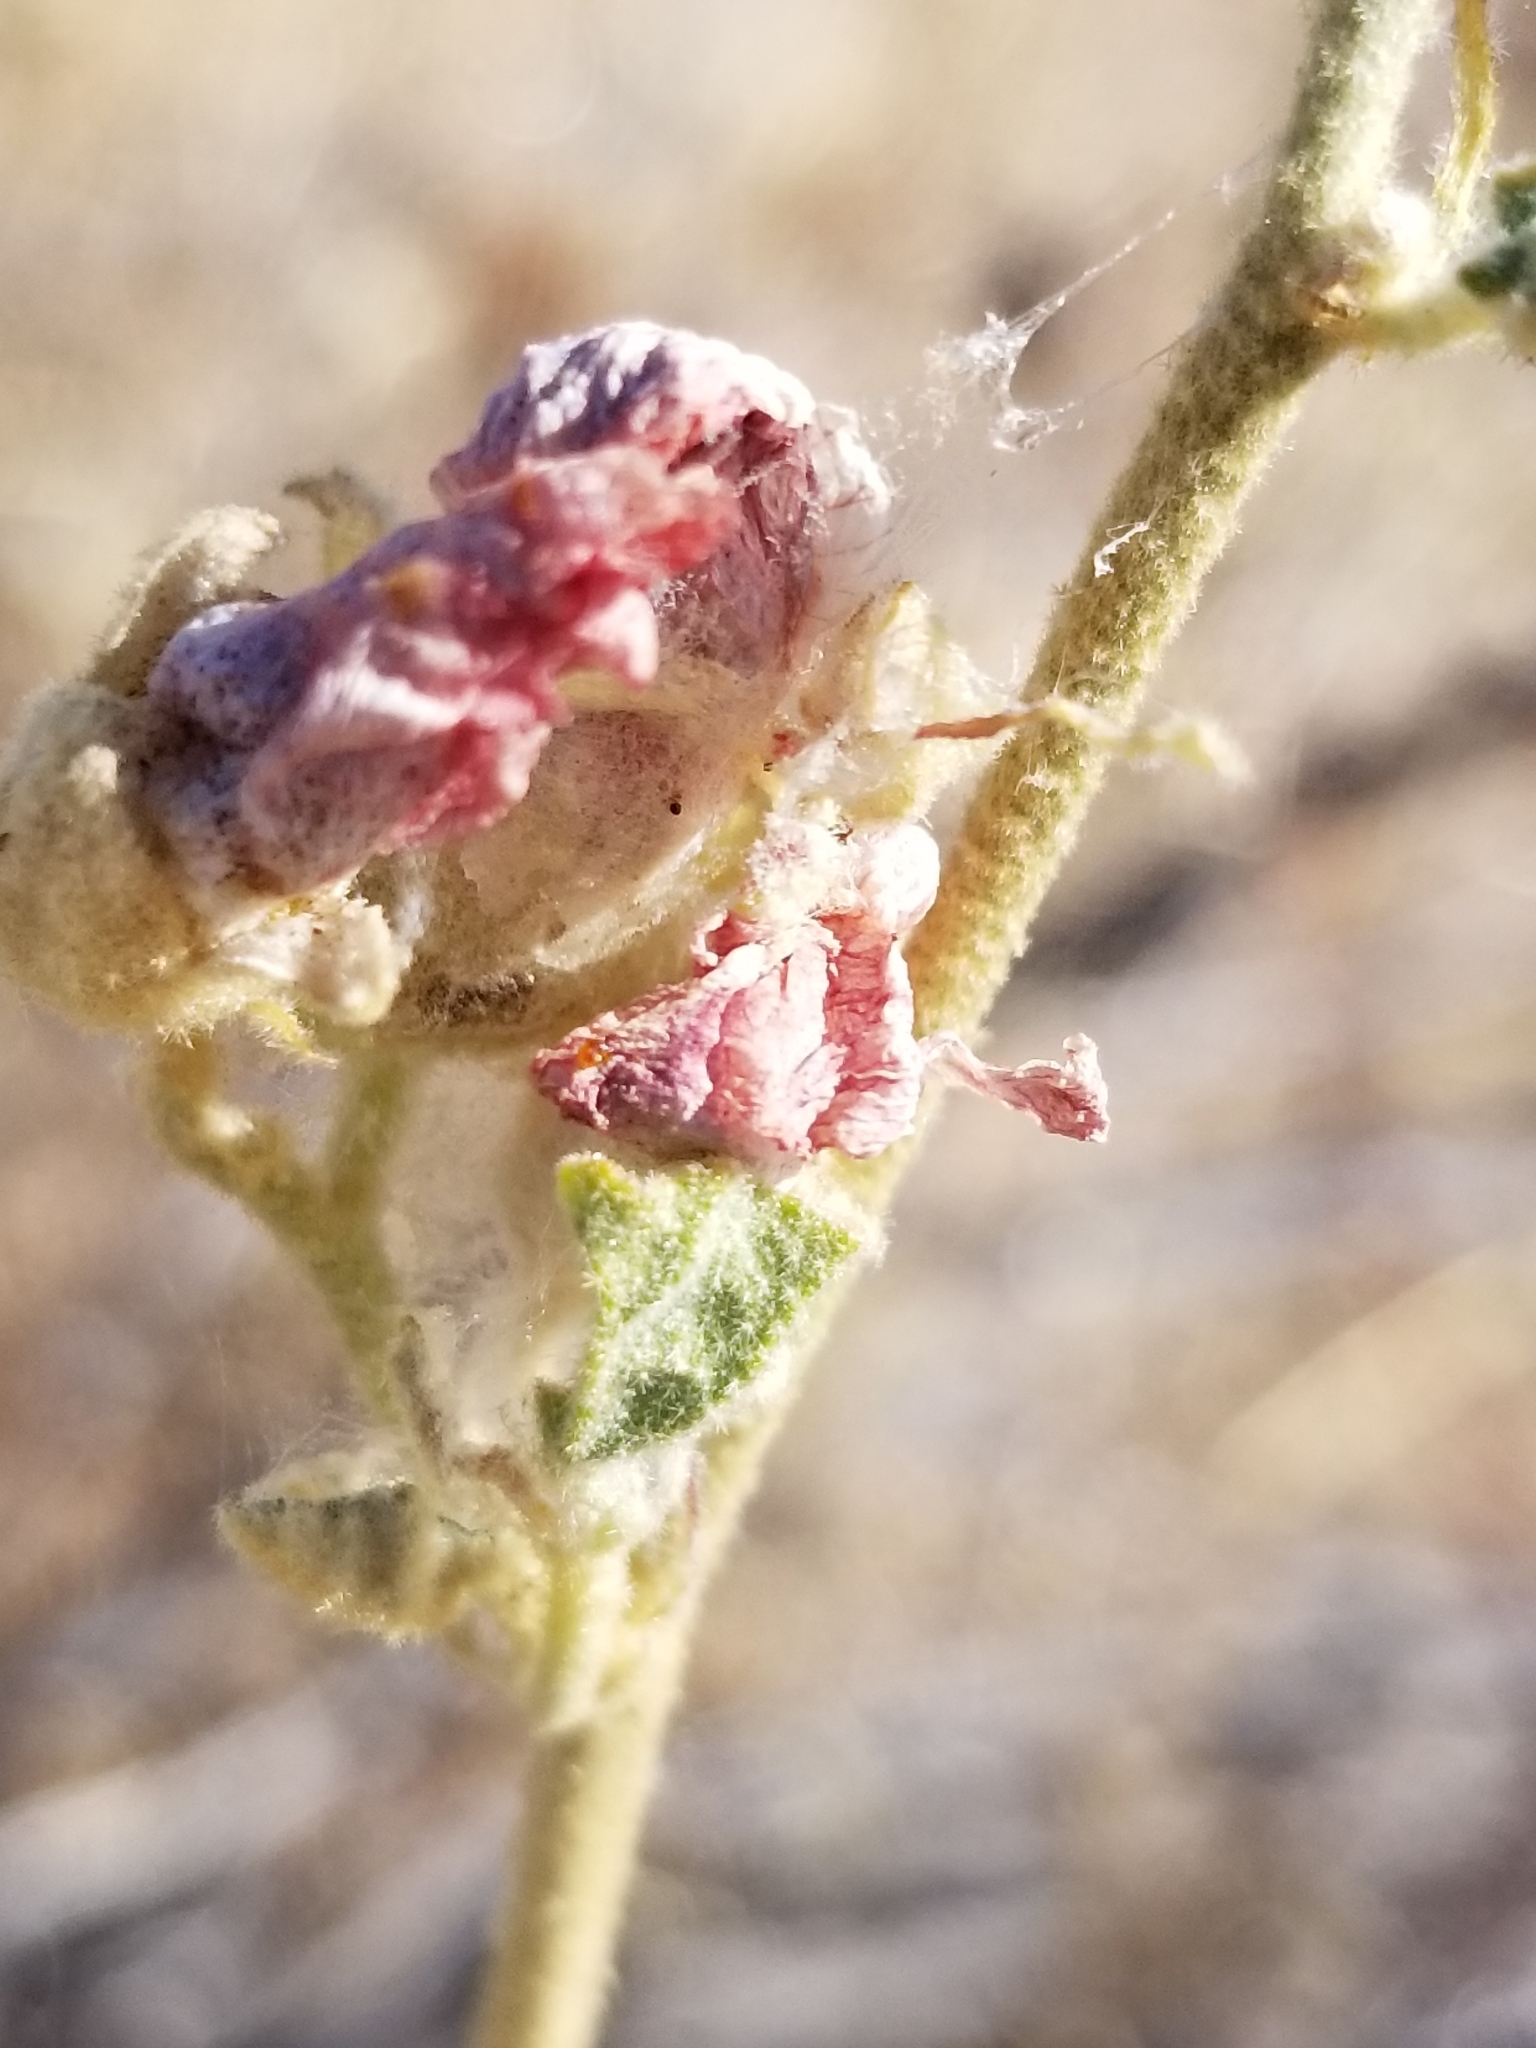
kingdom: Plantae
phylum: Tracheophyta
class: Magnoliopsida
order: Malvales
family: Malvaceae
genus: Sphaeralcea
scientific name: Sphaeralcea ambigua
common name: Apricot globe-mallow
